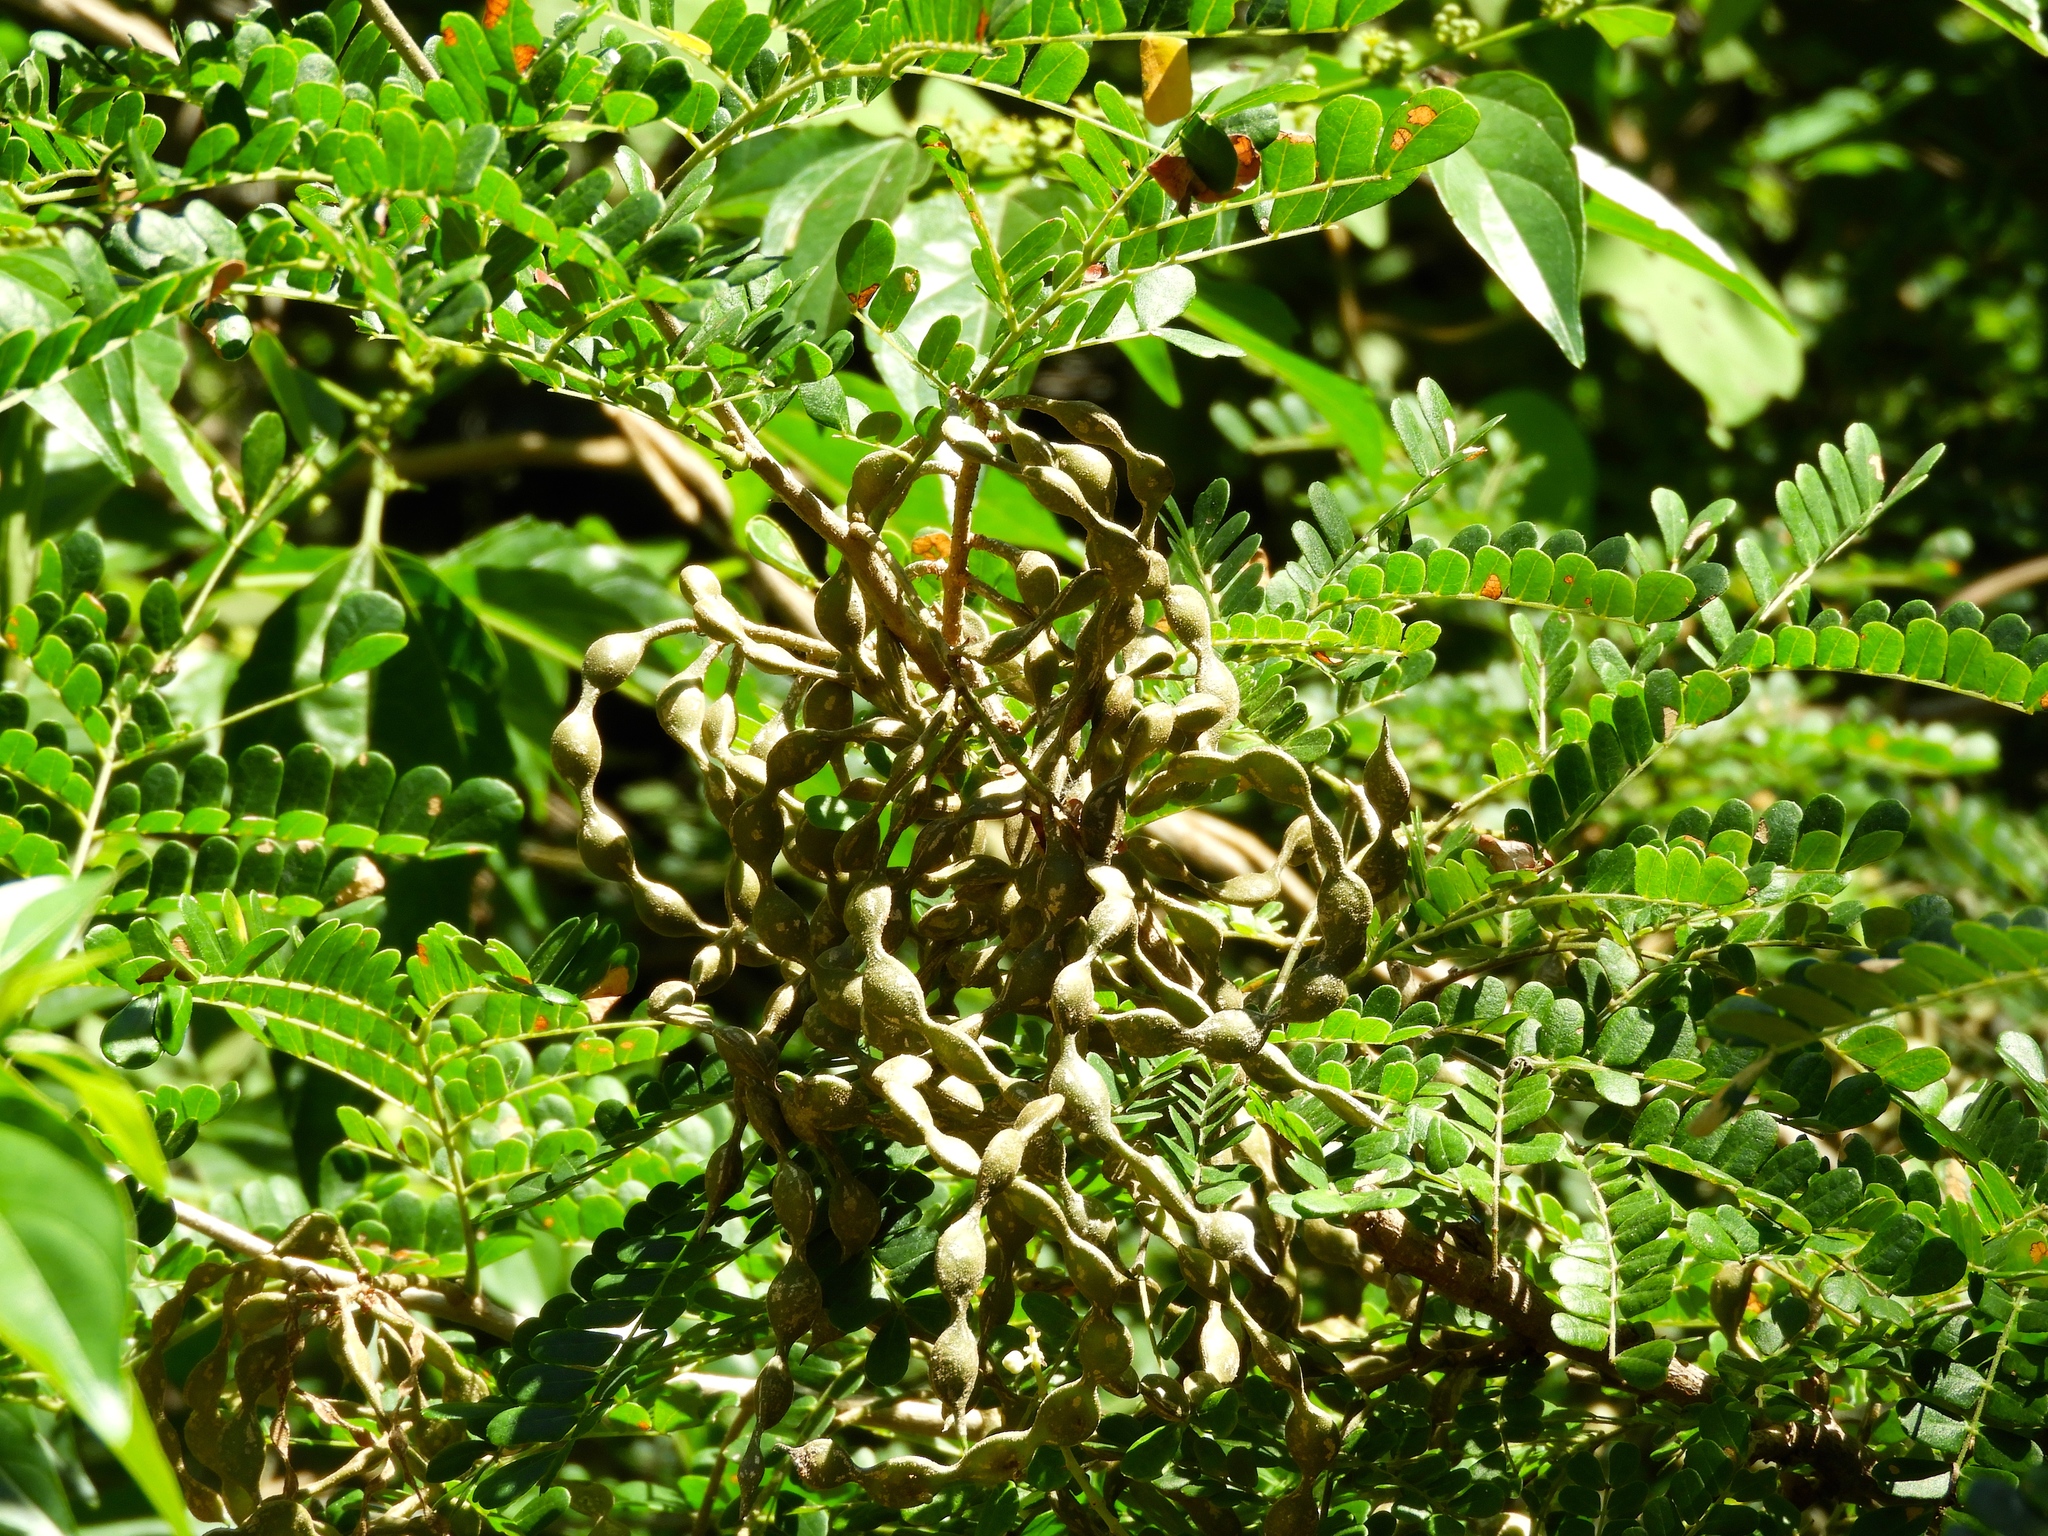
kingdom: Plantae
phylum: Tracheophyta
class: Magnoliopsida
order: Fabales
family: Fabaceae
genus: Pityrocarpa
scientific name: Pityrocarpa obliqua
